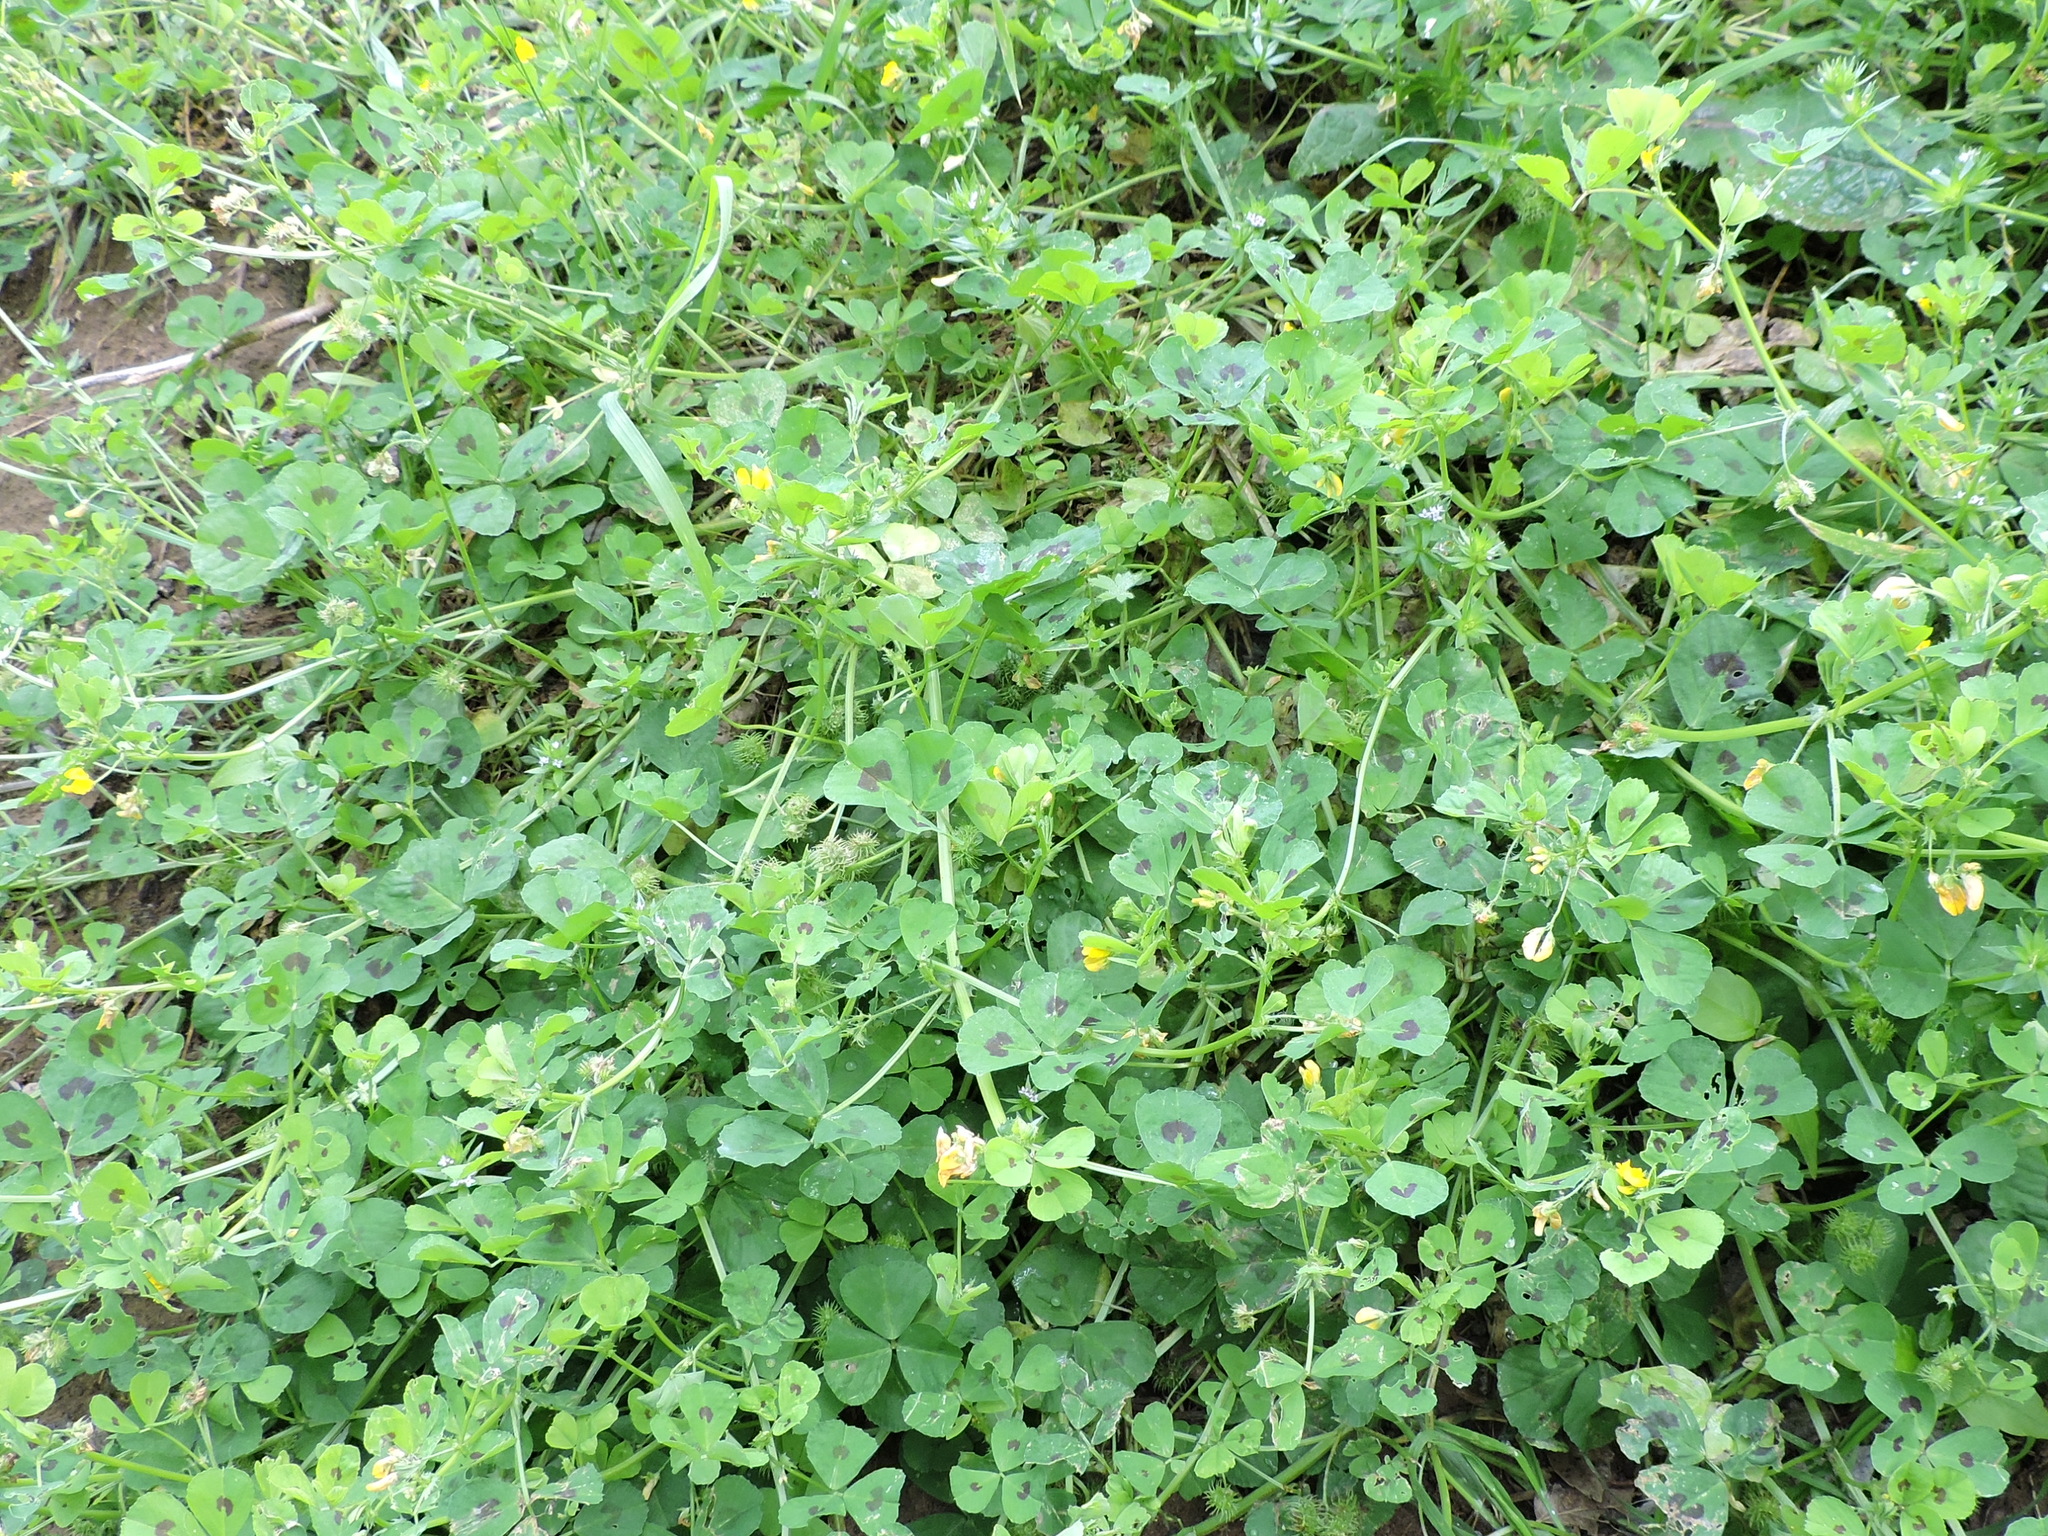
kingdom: Plantae
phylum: Tracheophyta
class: Magnoliopsida
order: Fabales
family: Fabaceae
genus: Medicago
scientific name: Medicago arabica
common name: Spotted medick
